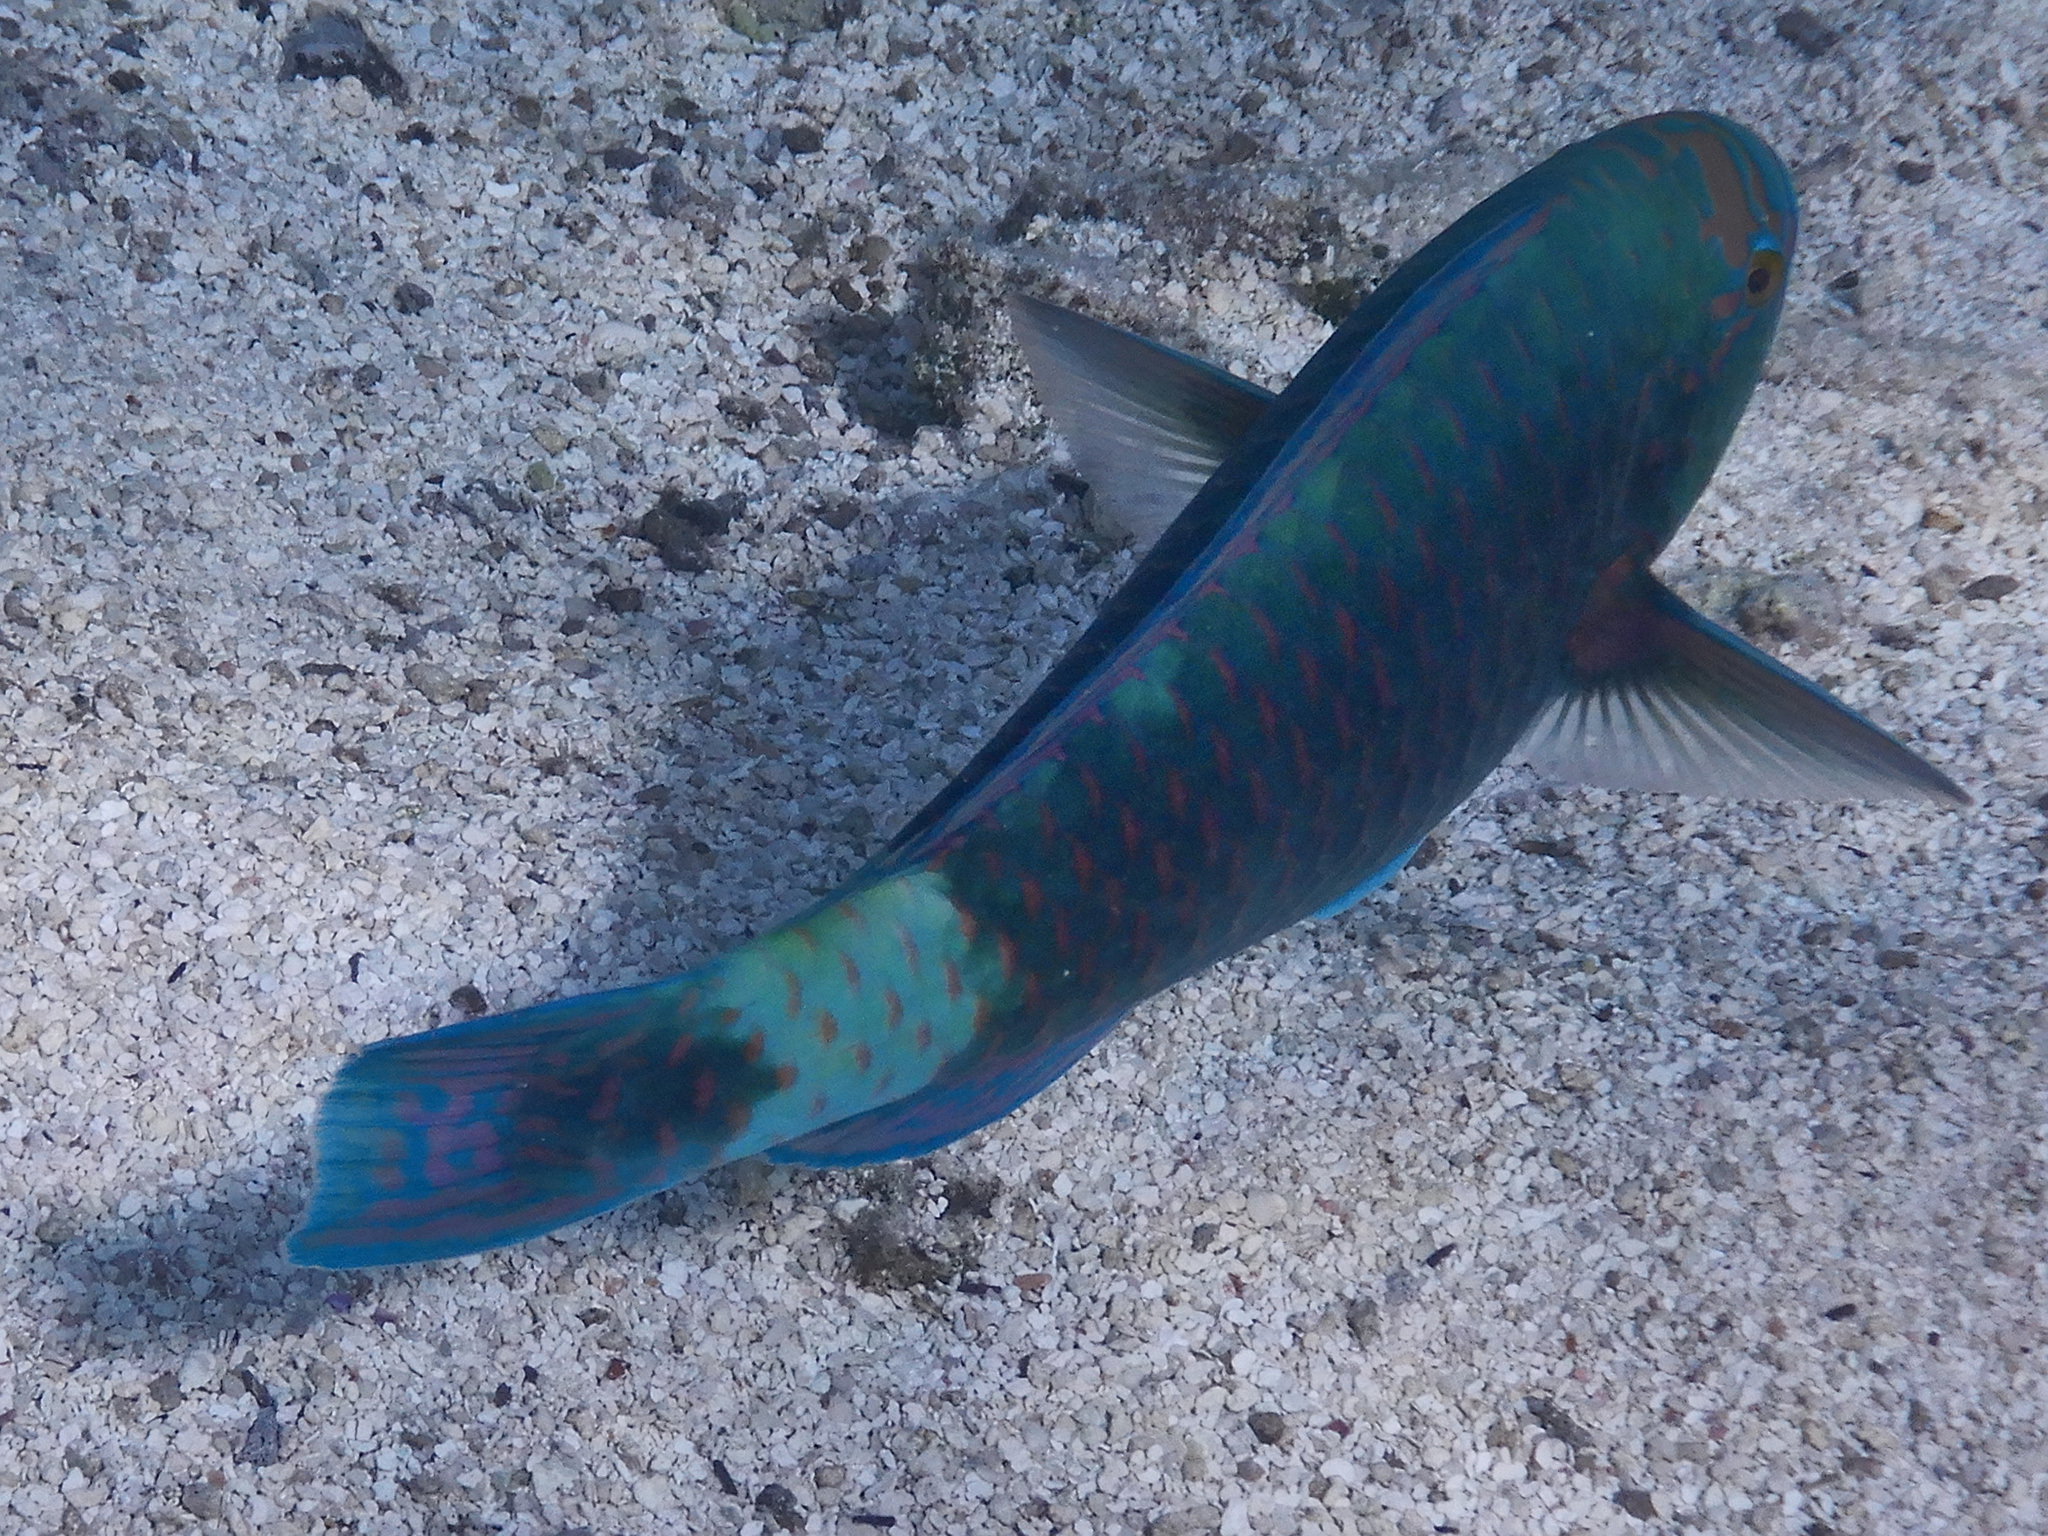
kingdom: Animalia
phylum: Chordata
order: Perciformes
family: Scaridae
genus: Chlorurus
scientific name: Chlorurus frontalis
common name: Reefcrest parrotfish
